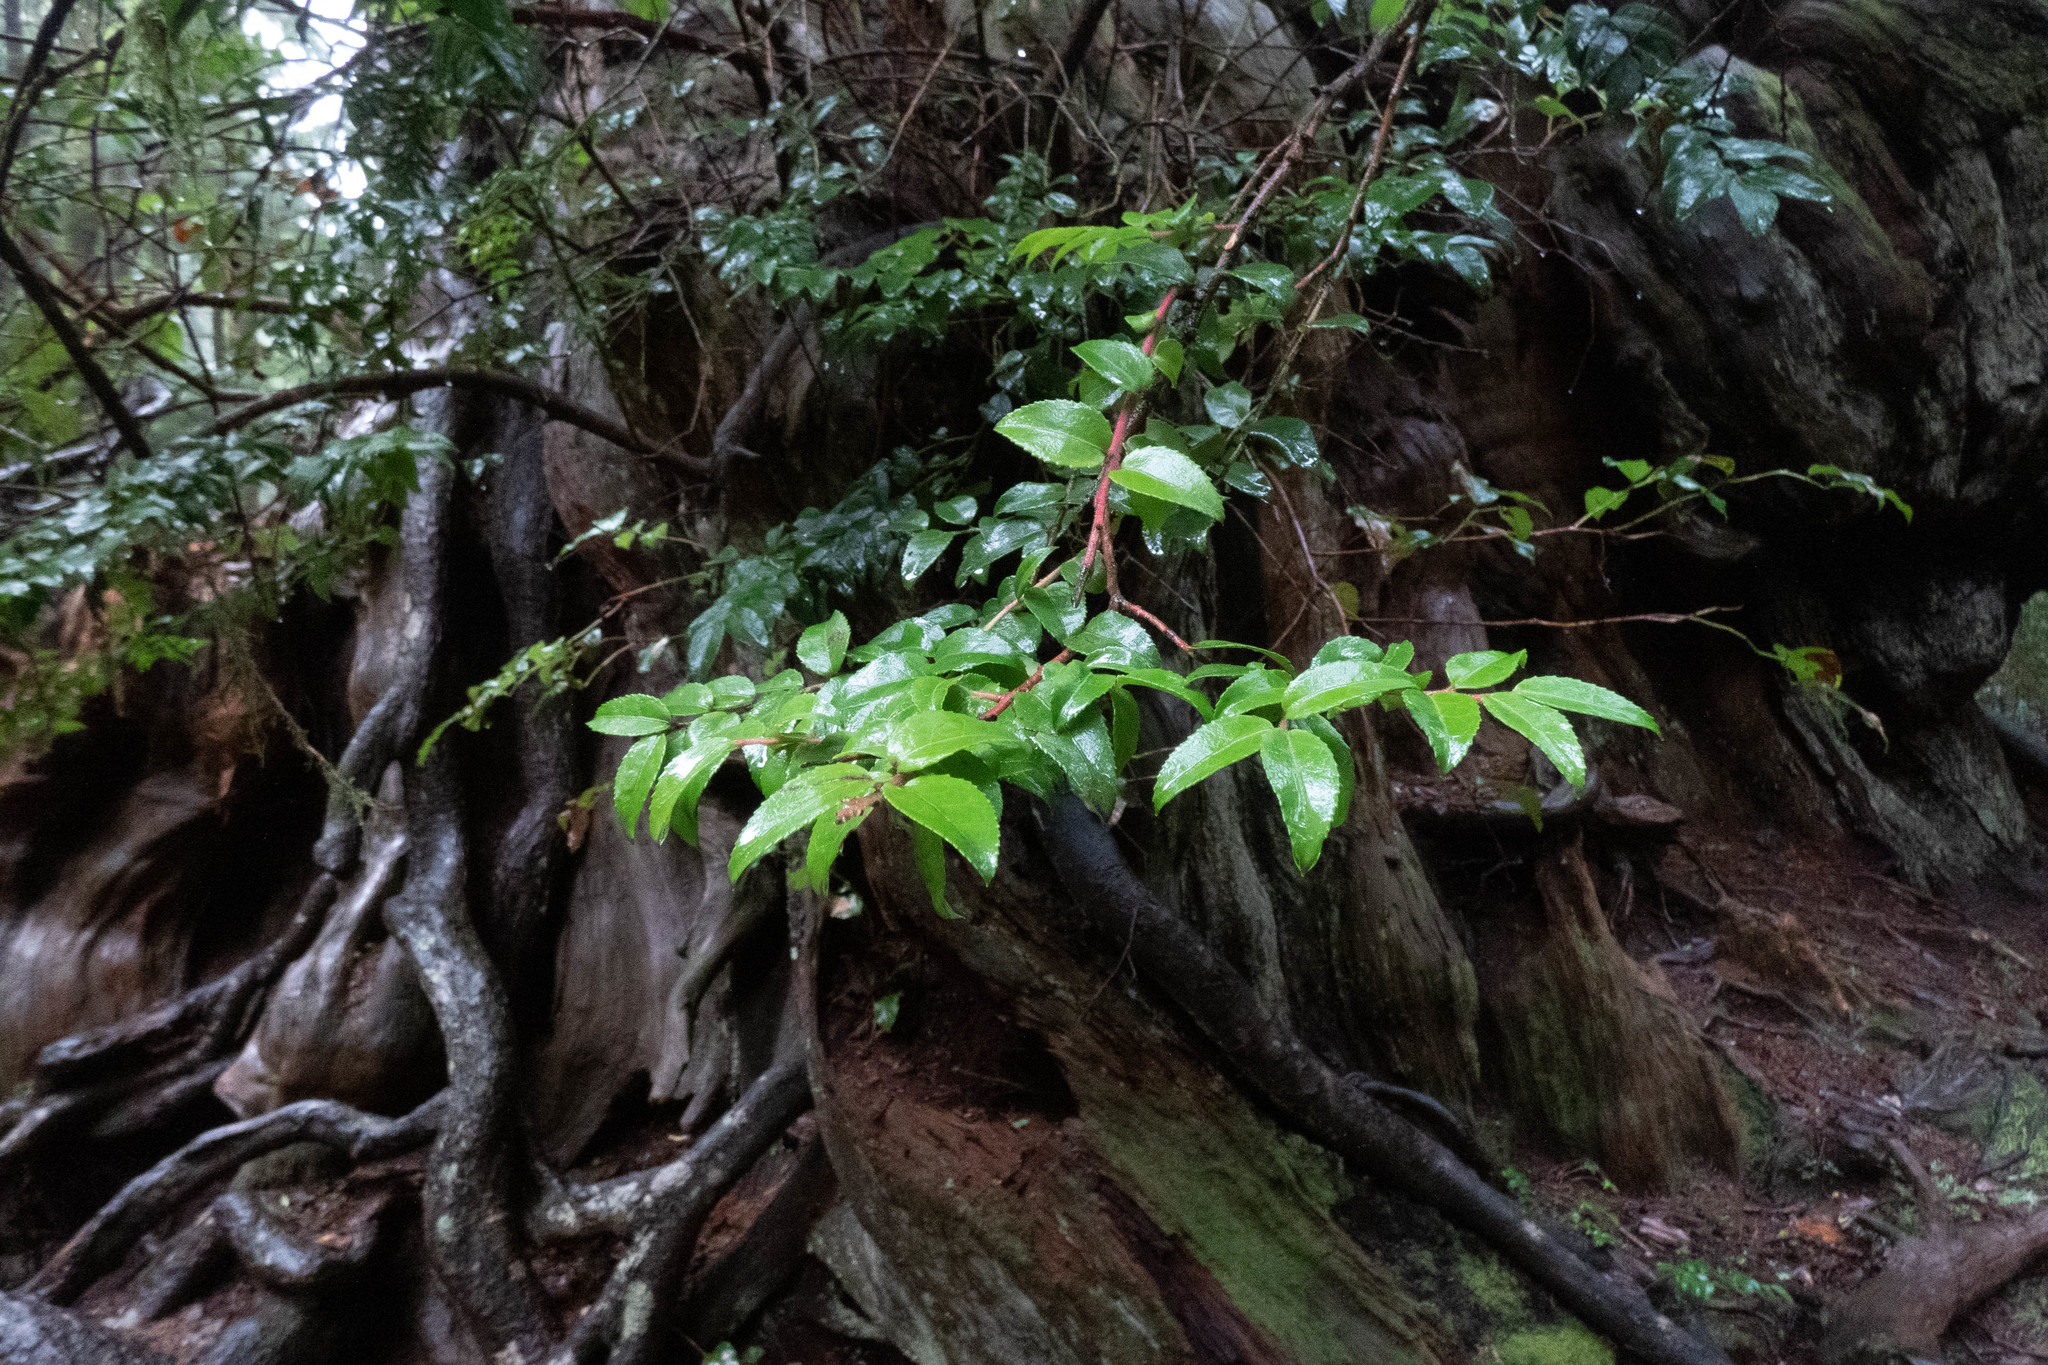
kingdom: Plantae
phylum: Tracheophyta
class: Magnoliopsida
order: Ericales
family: Ericaceae
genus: Vaccinium
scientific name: Vaccinium ovatum
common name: California-huckleberry
